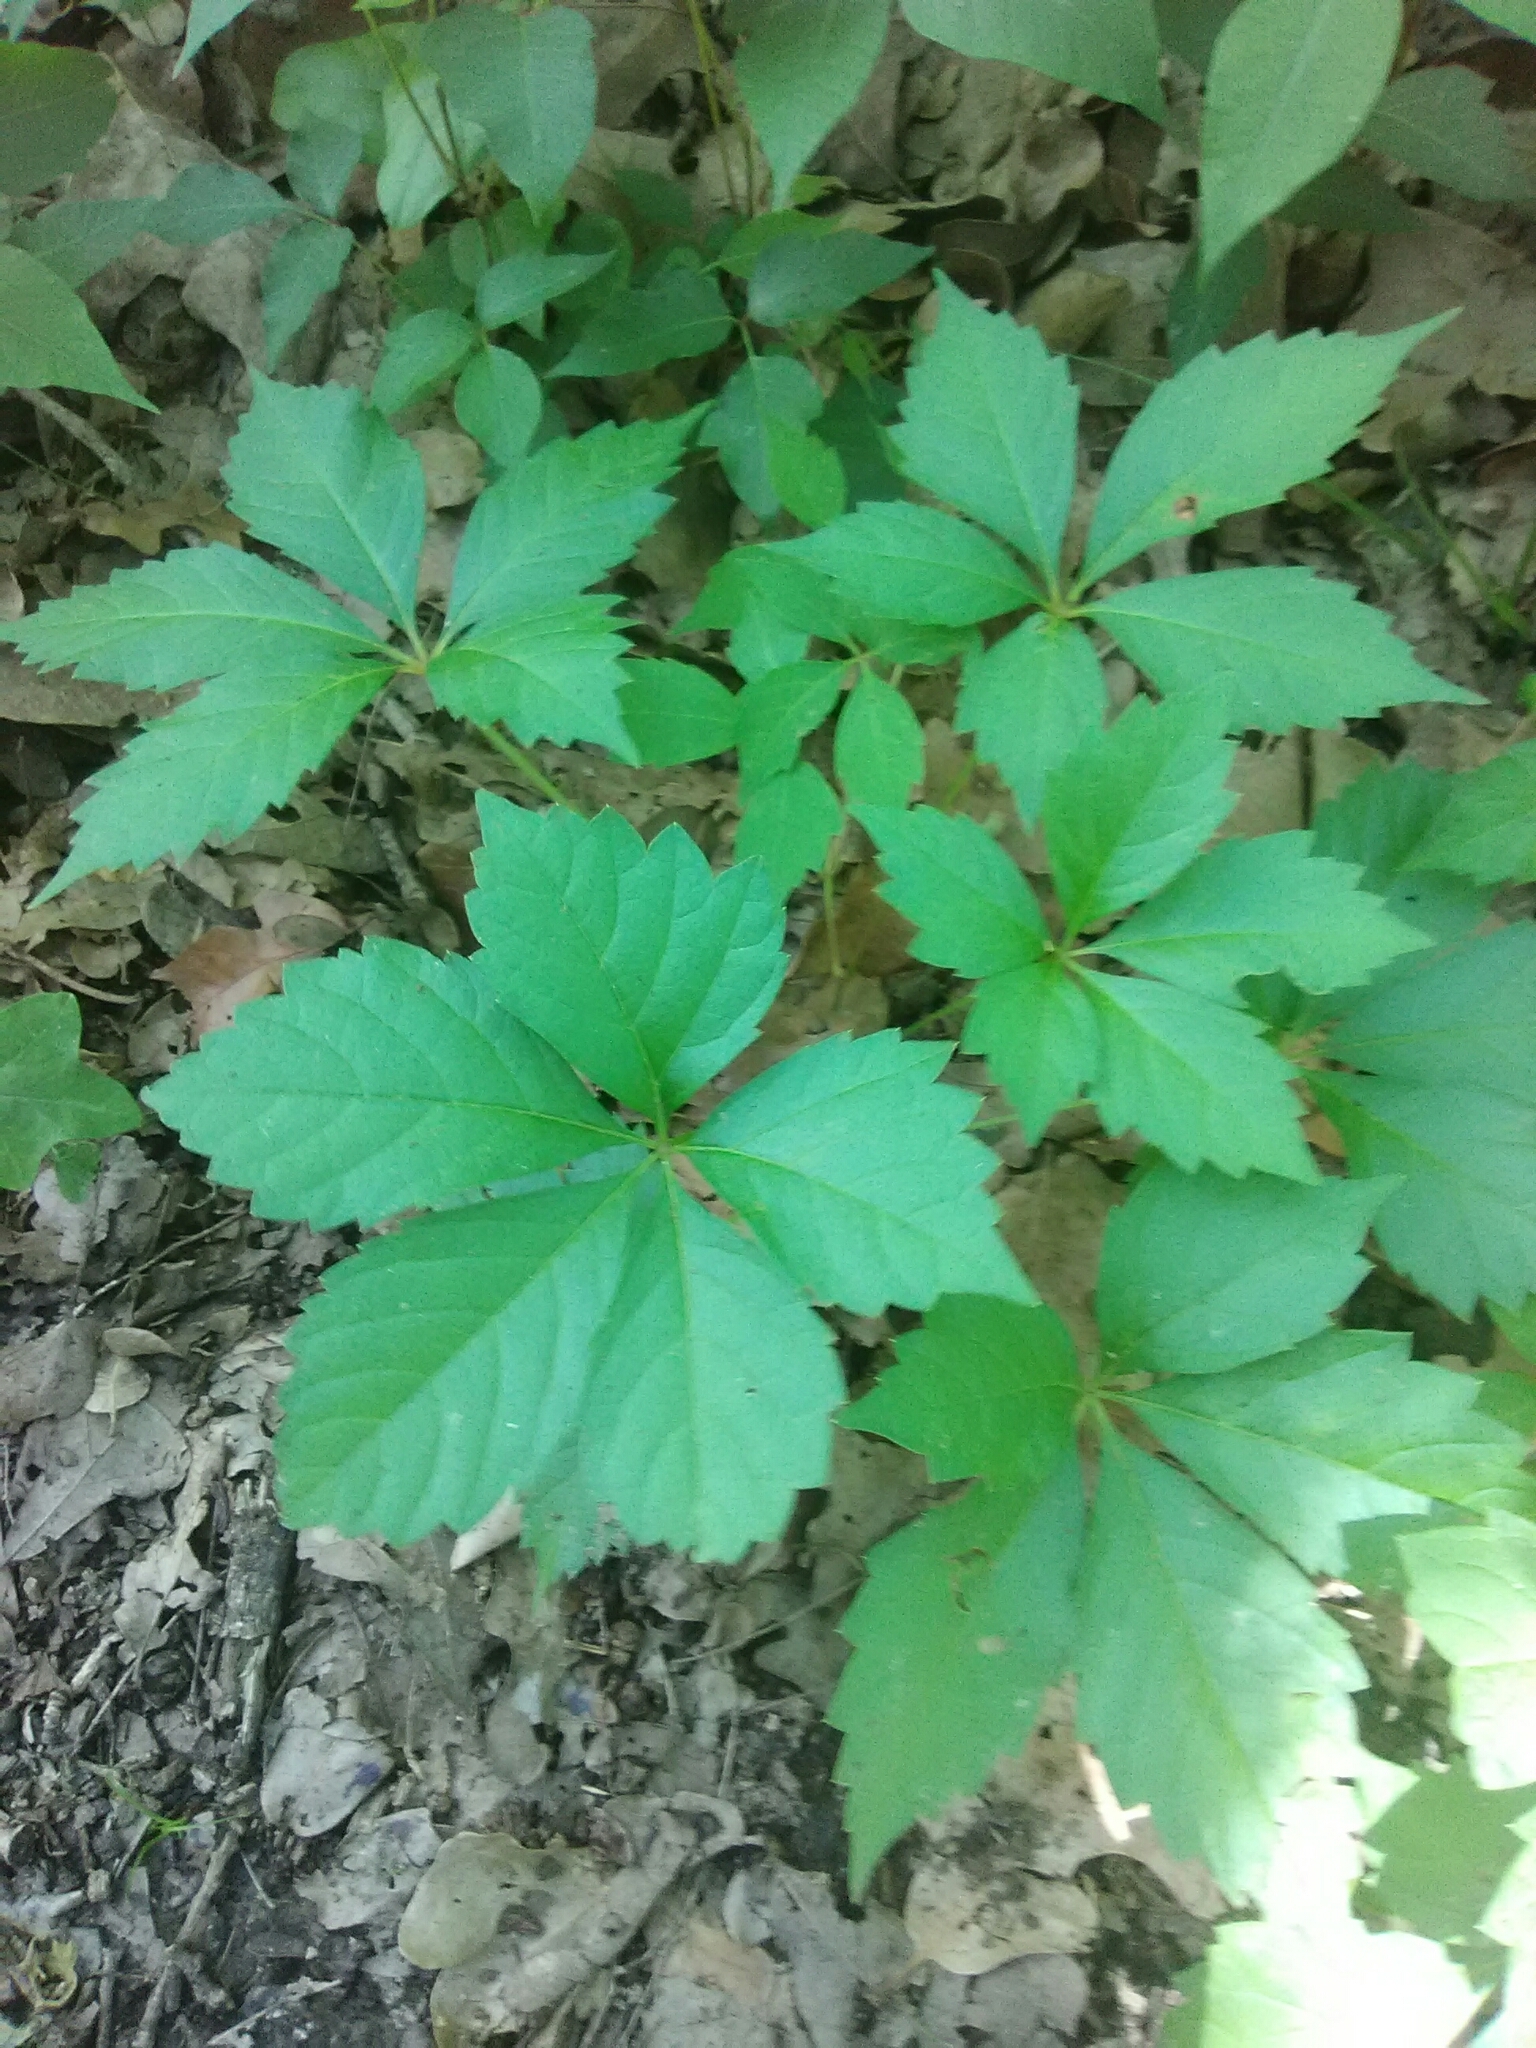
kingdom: Plantae
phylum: Tracheophyta
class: Magnoliopsida
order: Vitales
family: Vitaceae
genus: Parthenocissus
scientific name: Parthenocissus quinquefolia
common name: Virginia-creeper
